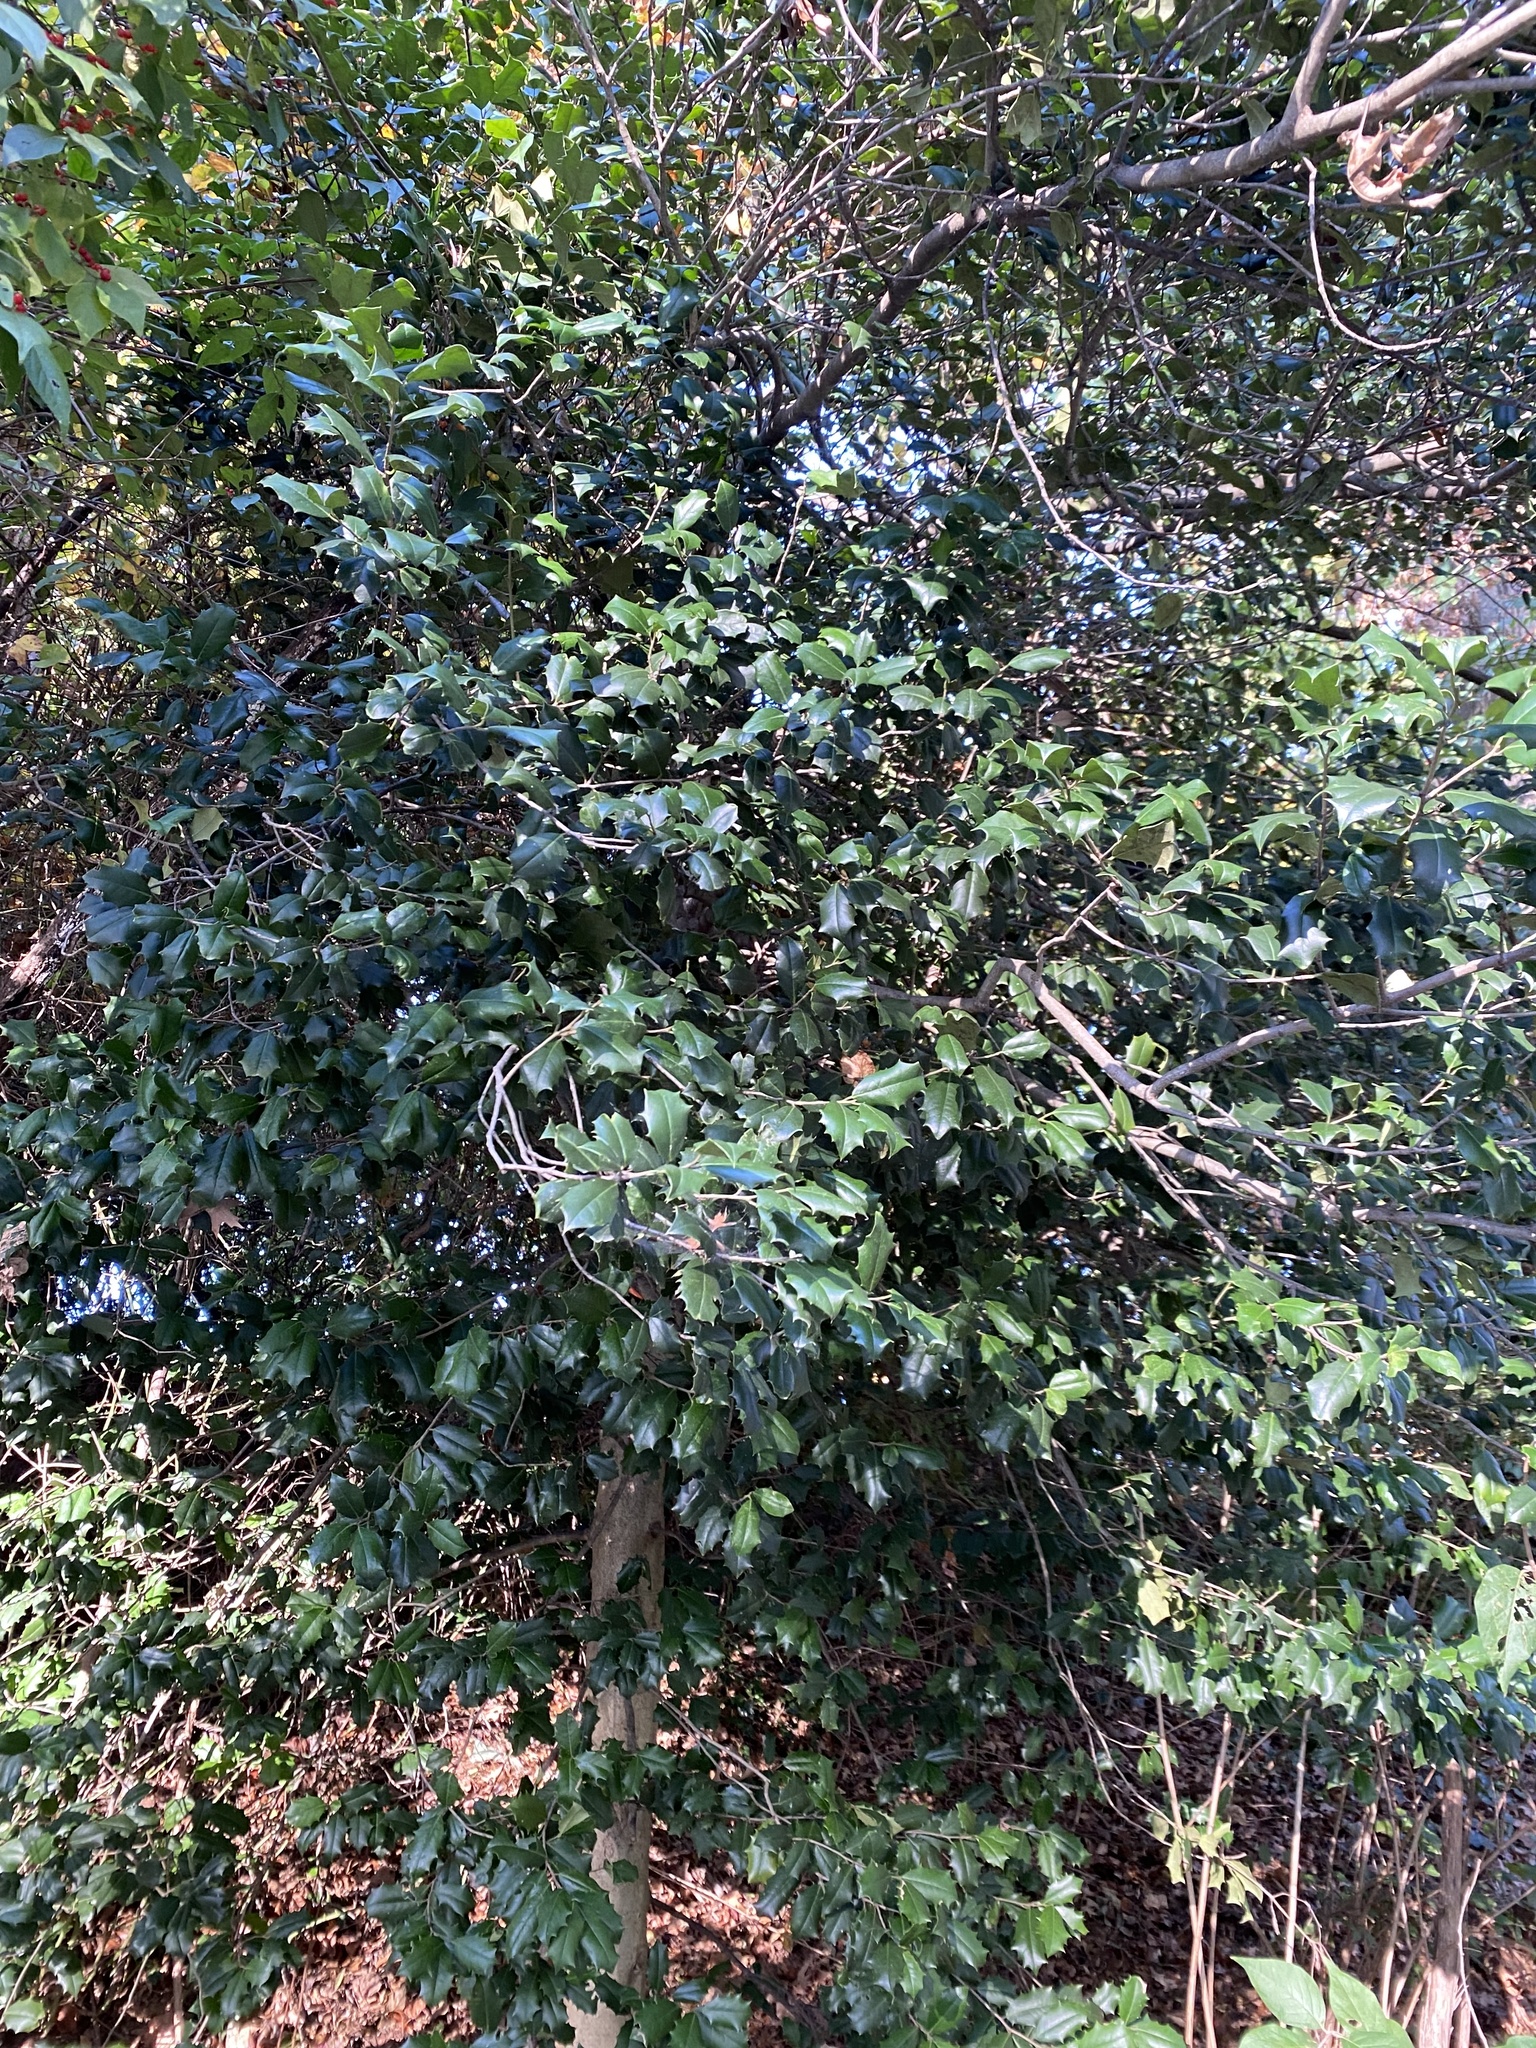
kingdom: Plantae
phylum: Tracheophyta
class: Magnoliopsida
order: Aquifoliales
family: Aquifoliaceae
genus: Ilex
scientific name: Ilex opaca
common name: American holly
